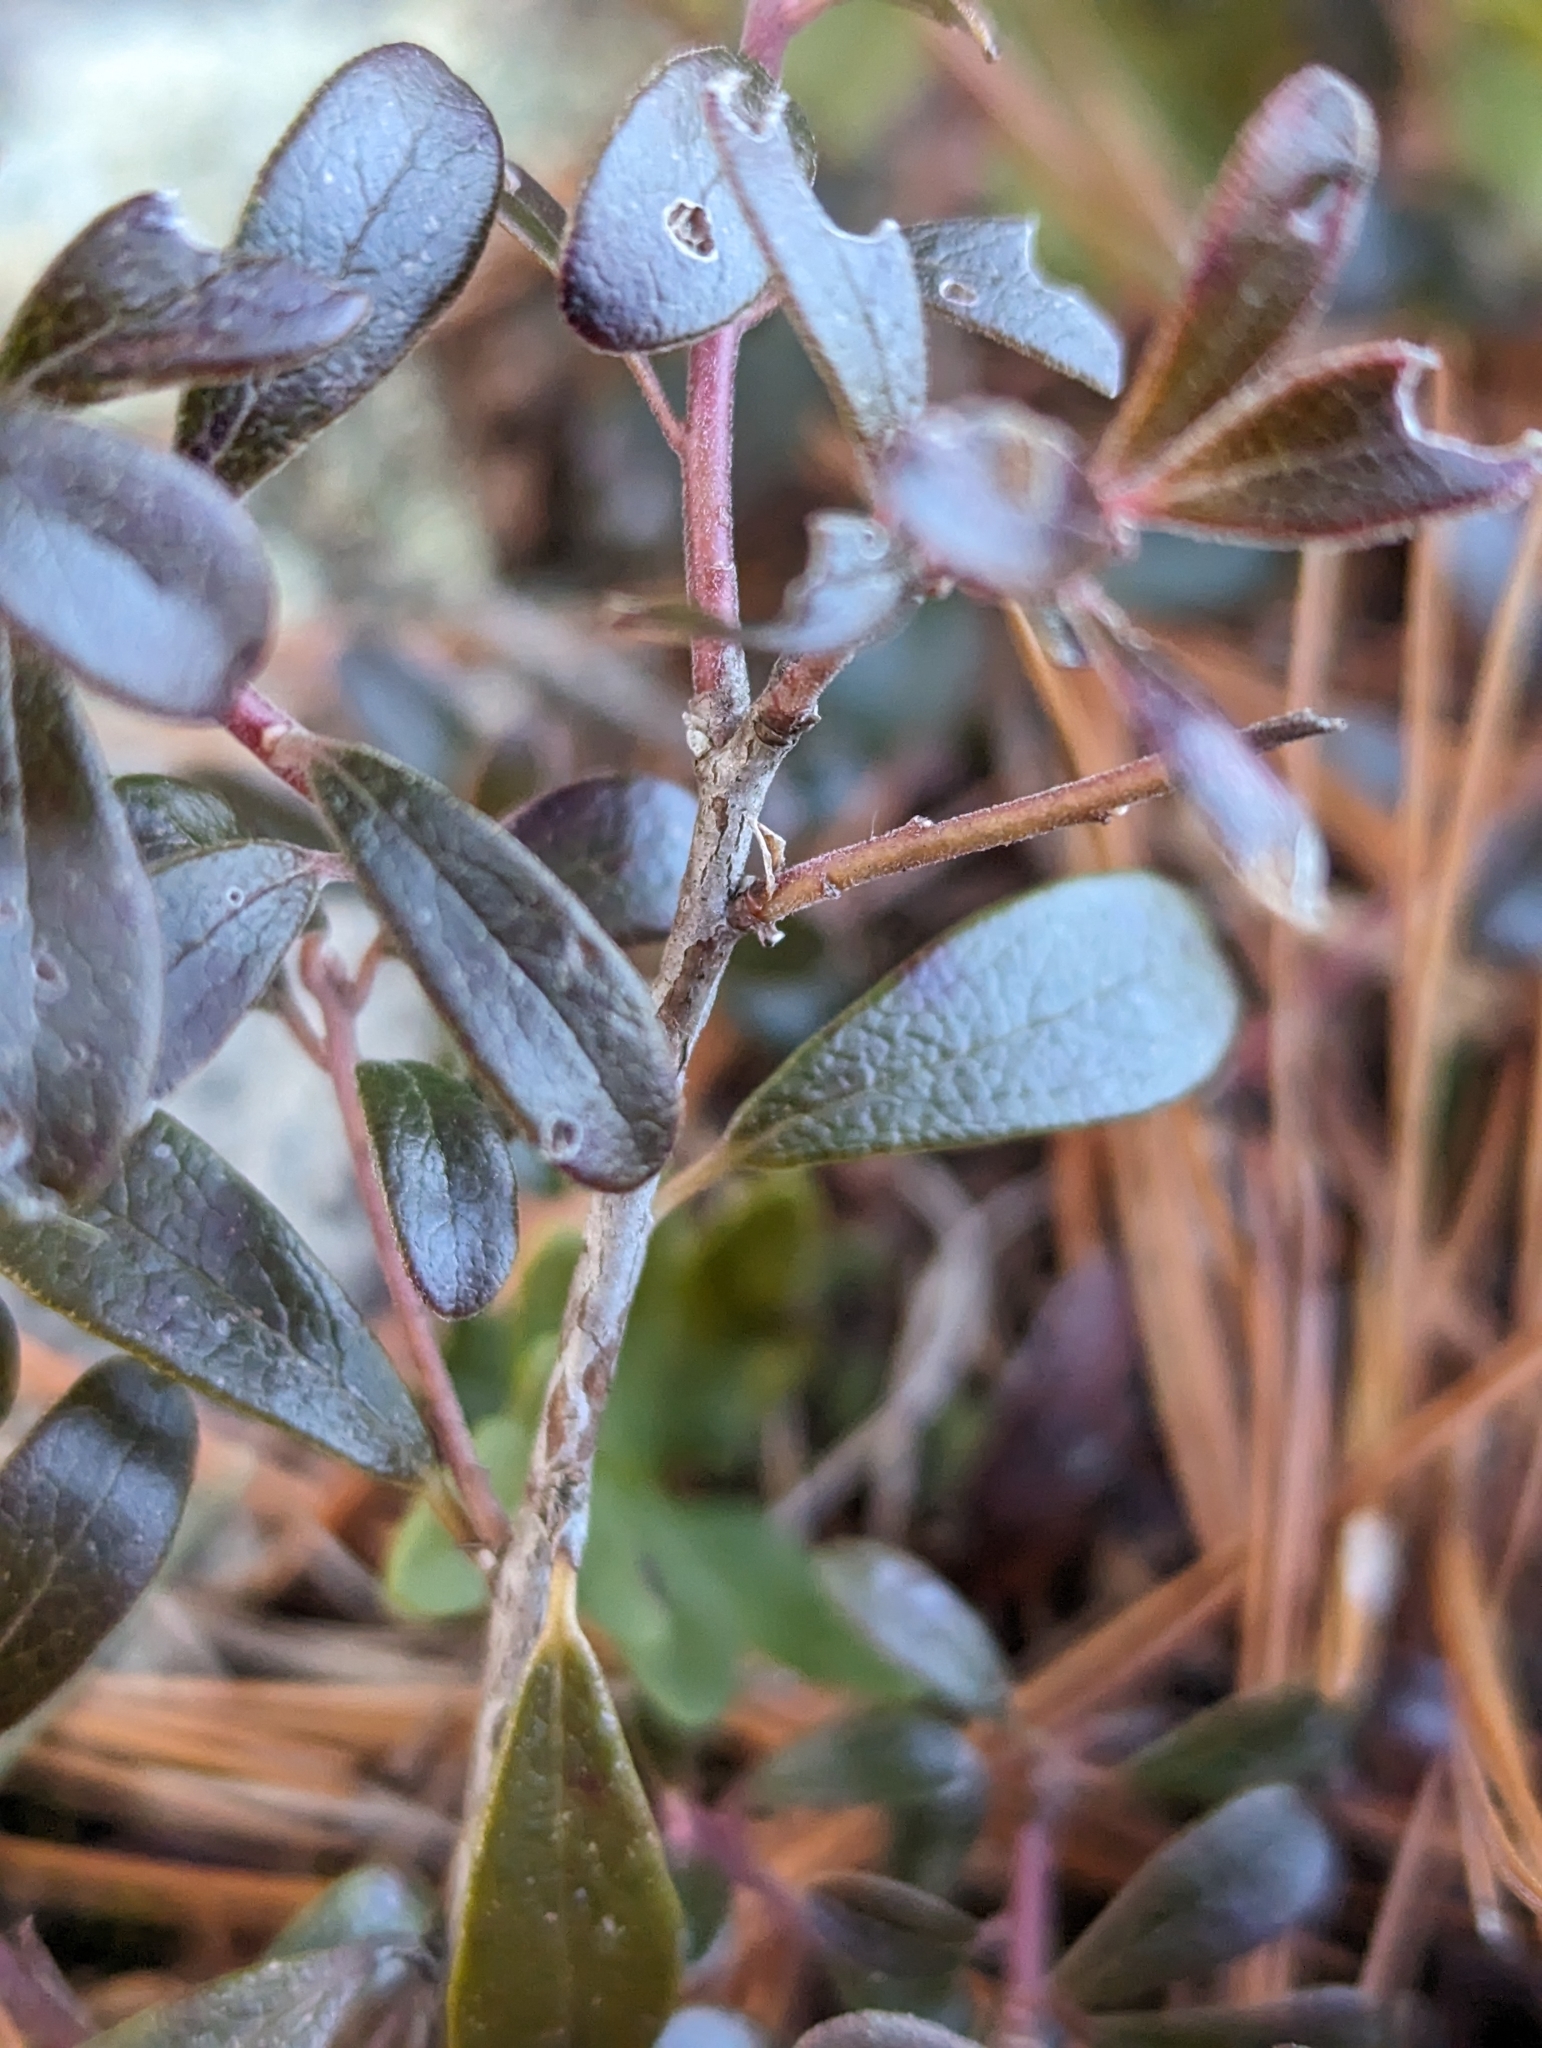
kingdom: Plantae
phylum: Tracheophyta
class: Magnoliopsida
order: Ericales
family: Ericaceae
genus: Arctostaphylos
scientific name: Arctostaphylos uva-ursi
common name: Bearberry
